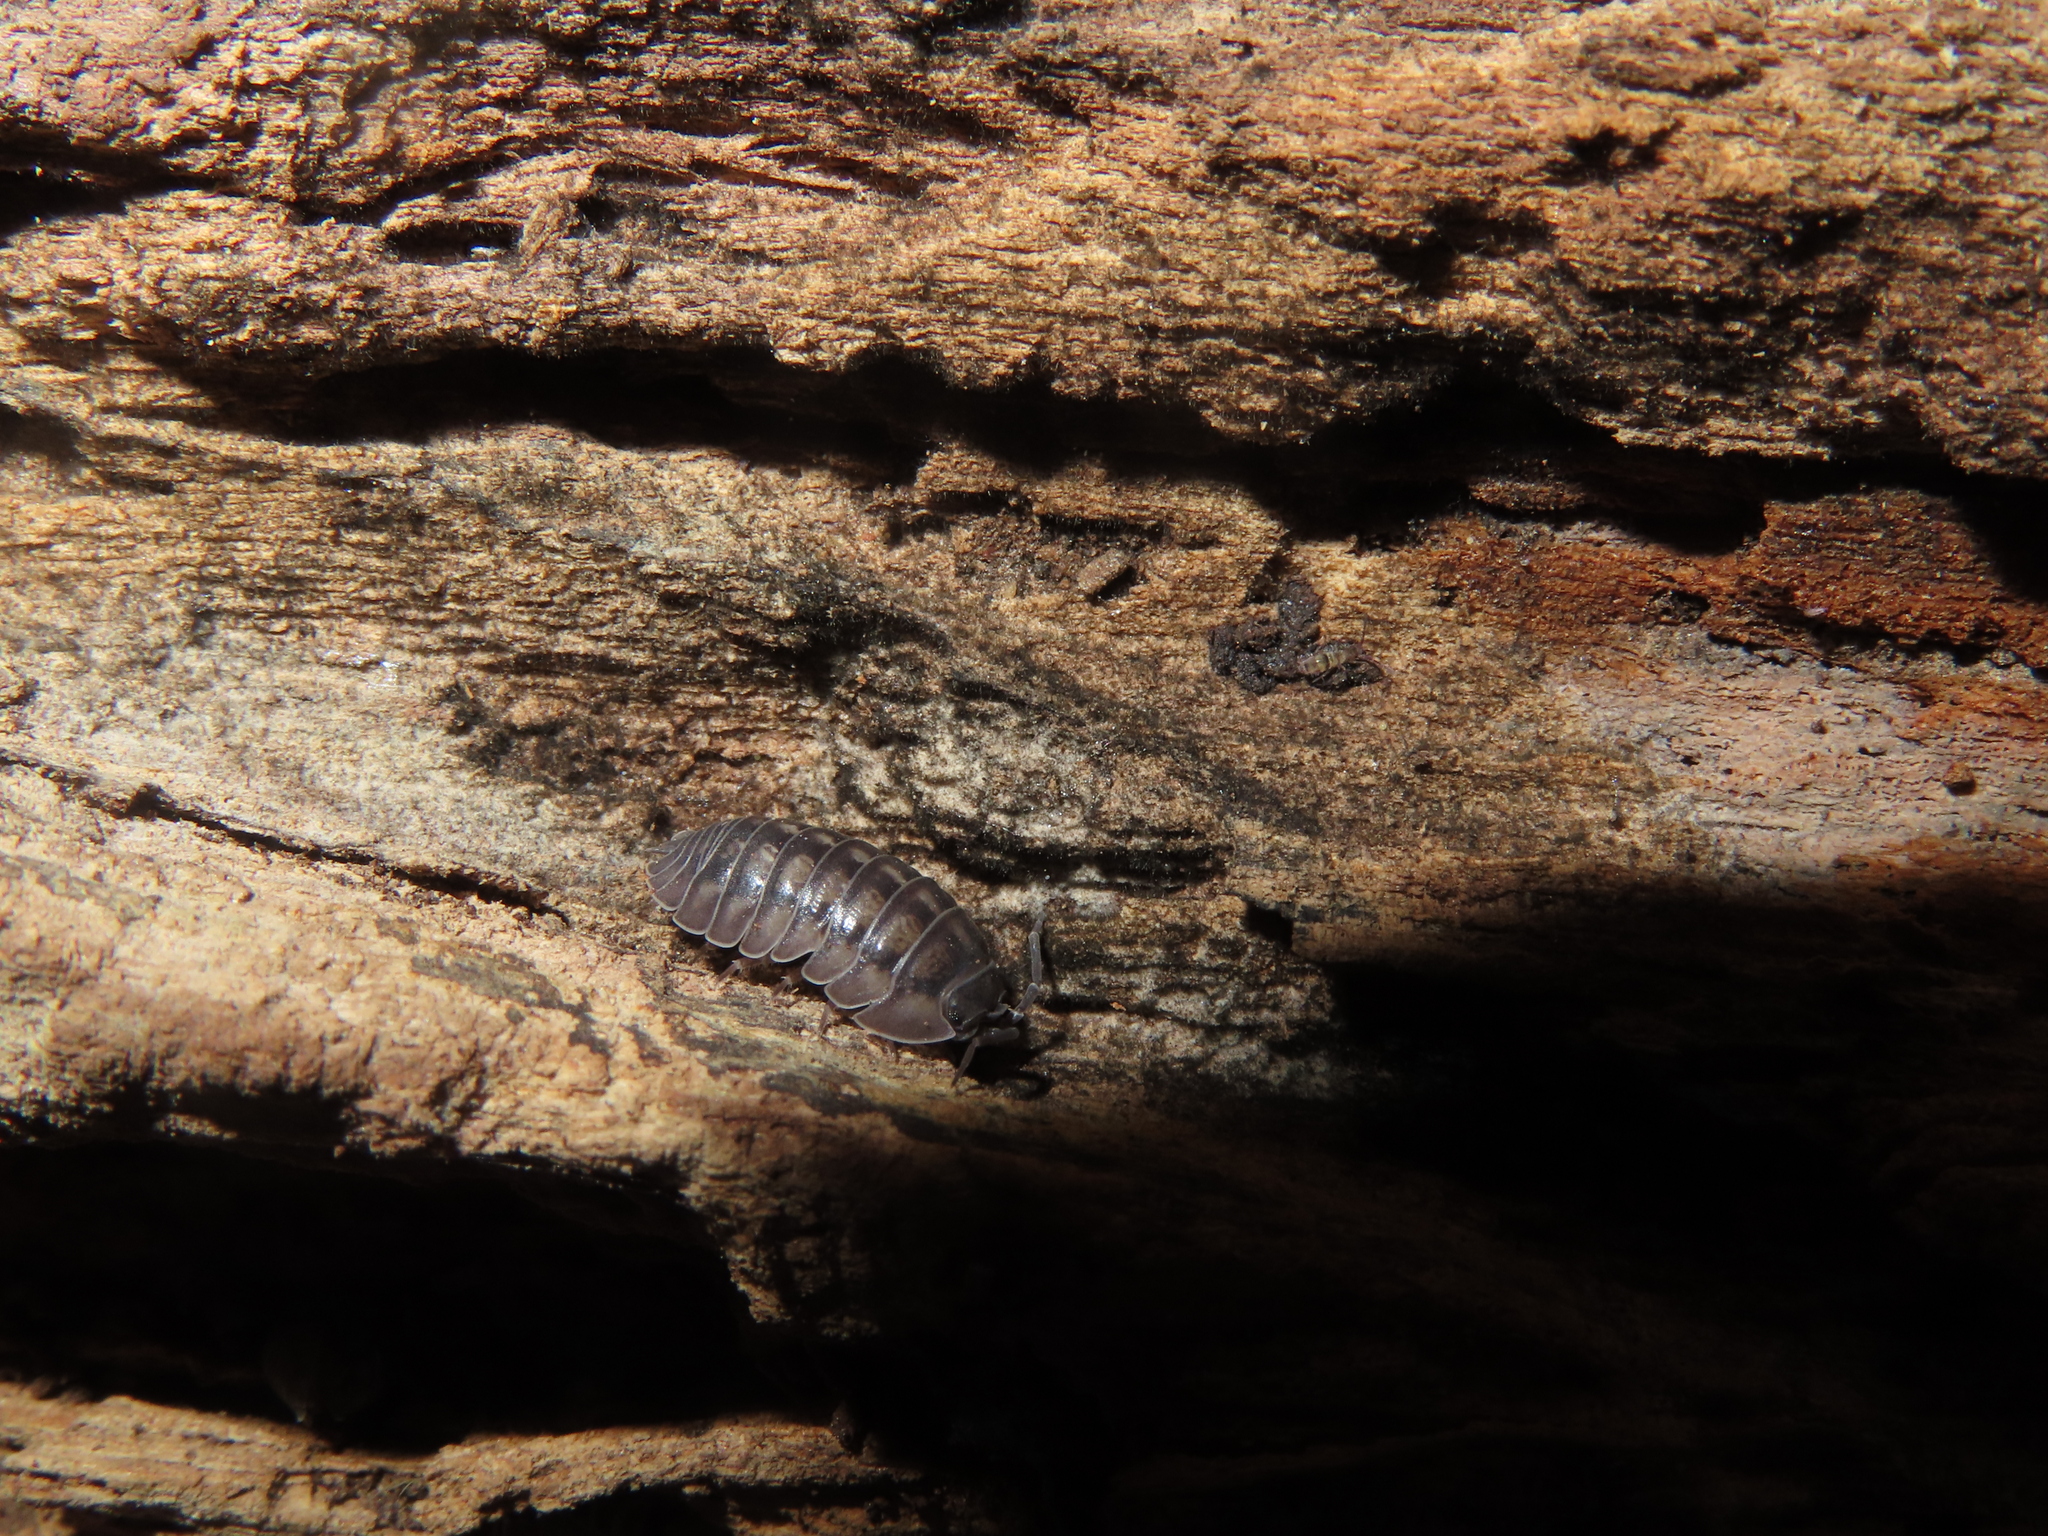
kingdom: Animalia
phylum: Arthropoda
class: Malacostraca
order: Isopoda
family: Armadillidiidae
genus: Armadillidium
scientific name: Armadillidium nasatum
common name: Isopod
